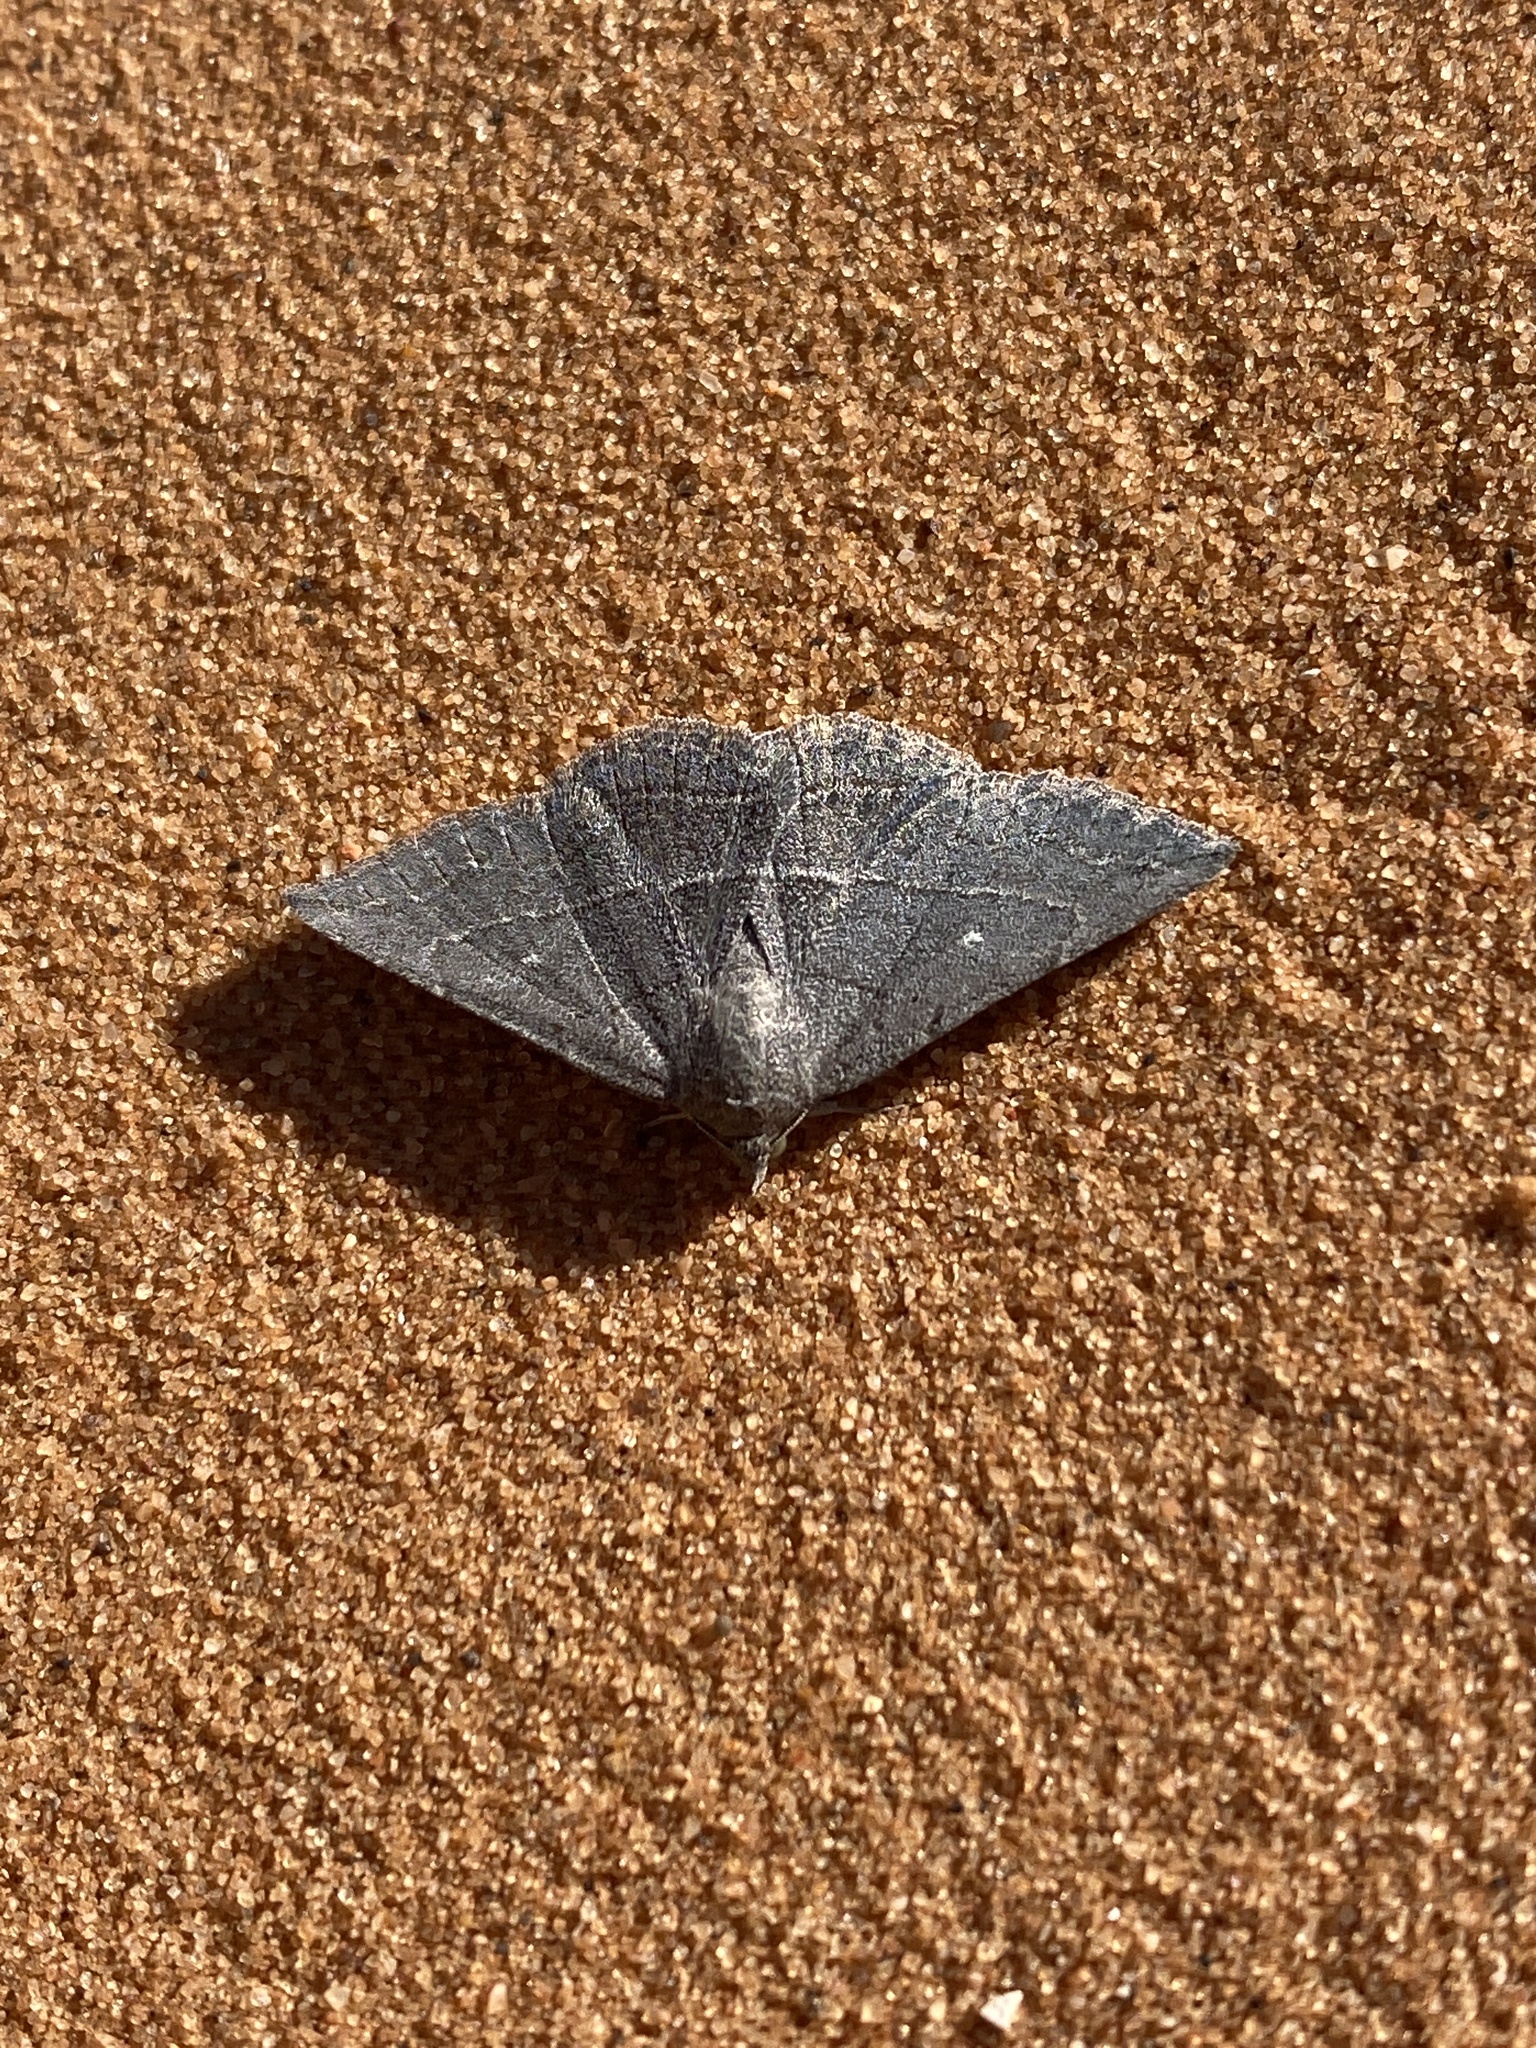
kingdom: Animalia
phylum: Arthropoda
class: Insecta
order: Lepidoptera
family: Erebidae
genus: Lesmone
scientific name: Lesmone griseipennis
